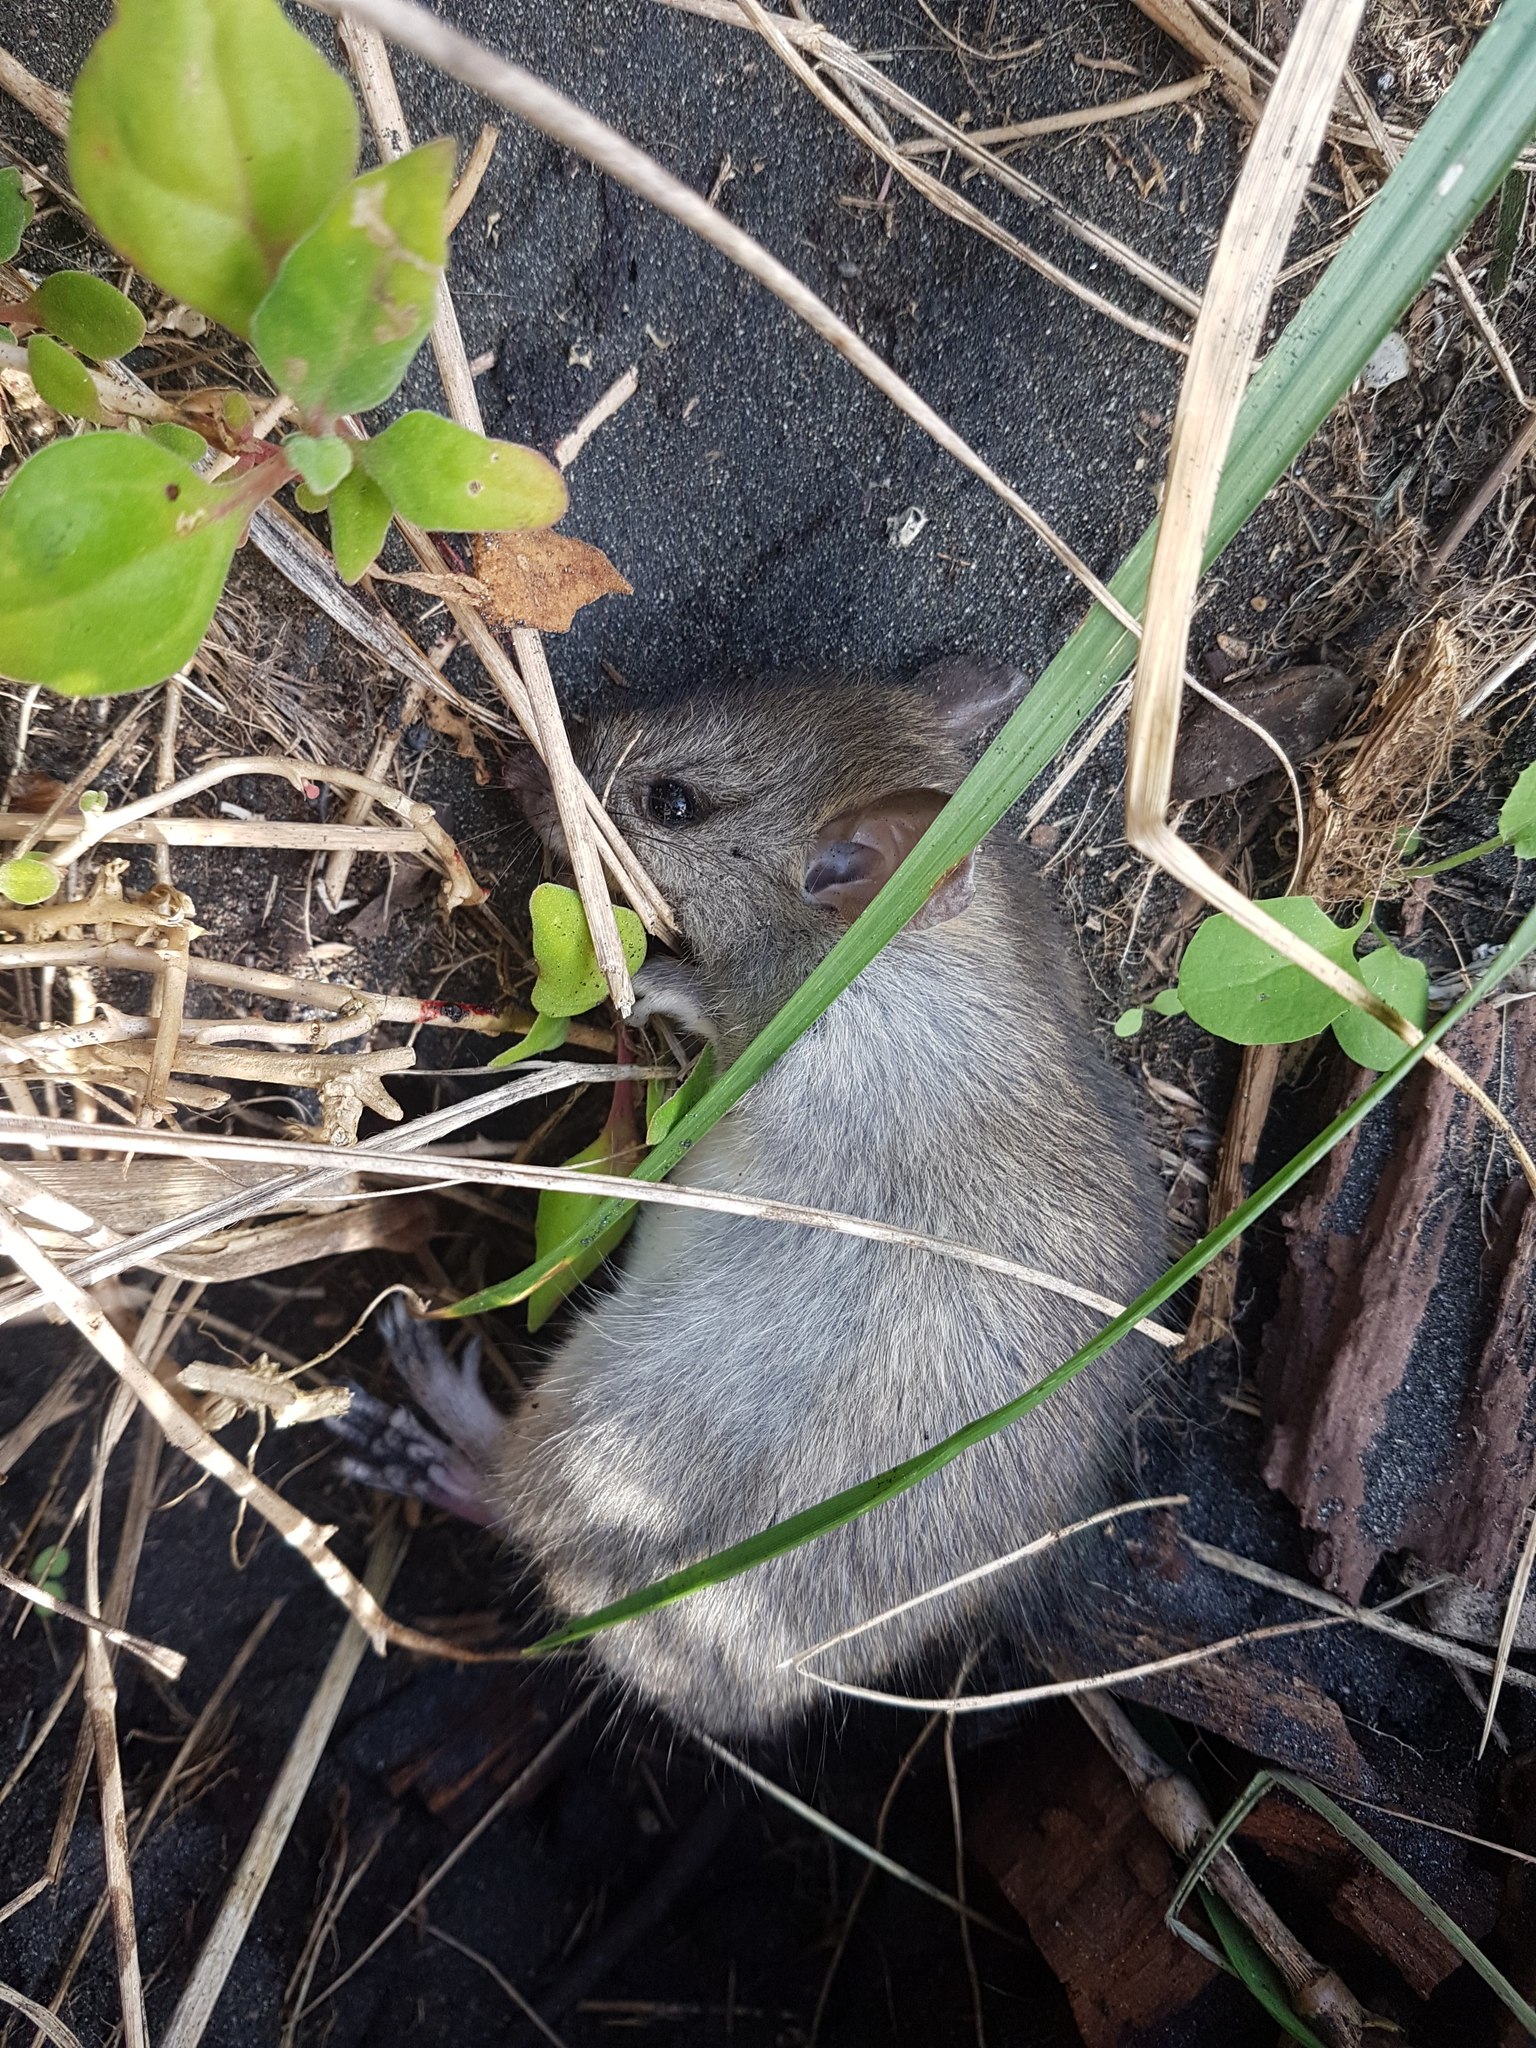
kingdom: Animalia
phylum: Chordata
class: Mammalia
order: Rodentia
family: Muridae
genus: Rattus
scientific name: Rattus rattus
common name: Black rat
